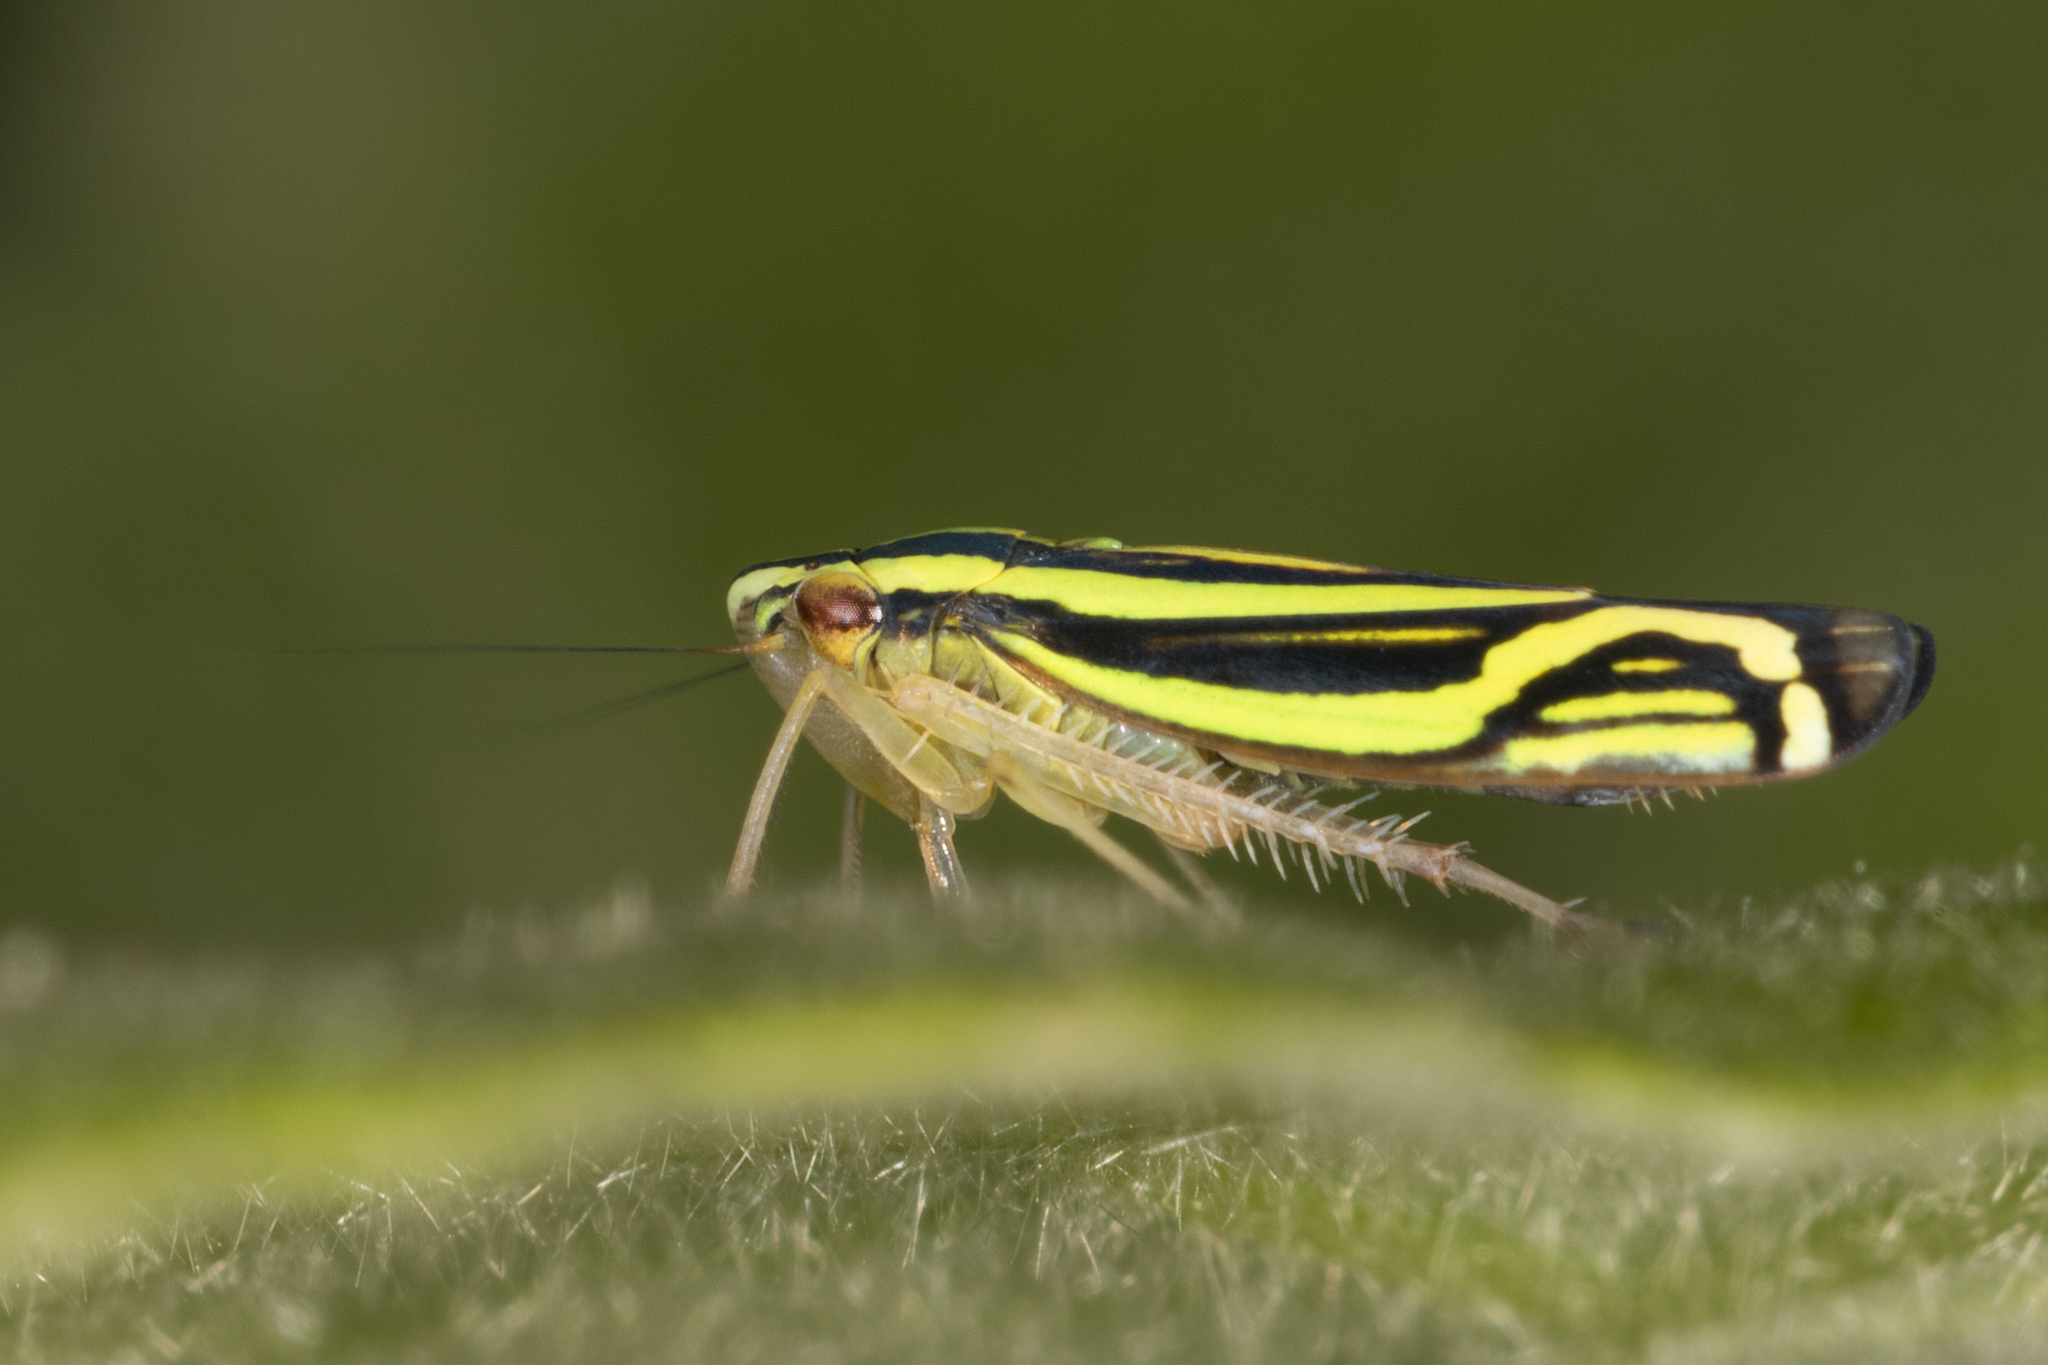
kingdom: Animalia
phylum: Arthropoda
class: Insecta
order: Hemiptera
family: Cicadellidae
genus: Sibovia
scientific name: Sibovia sagata
